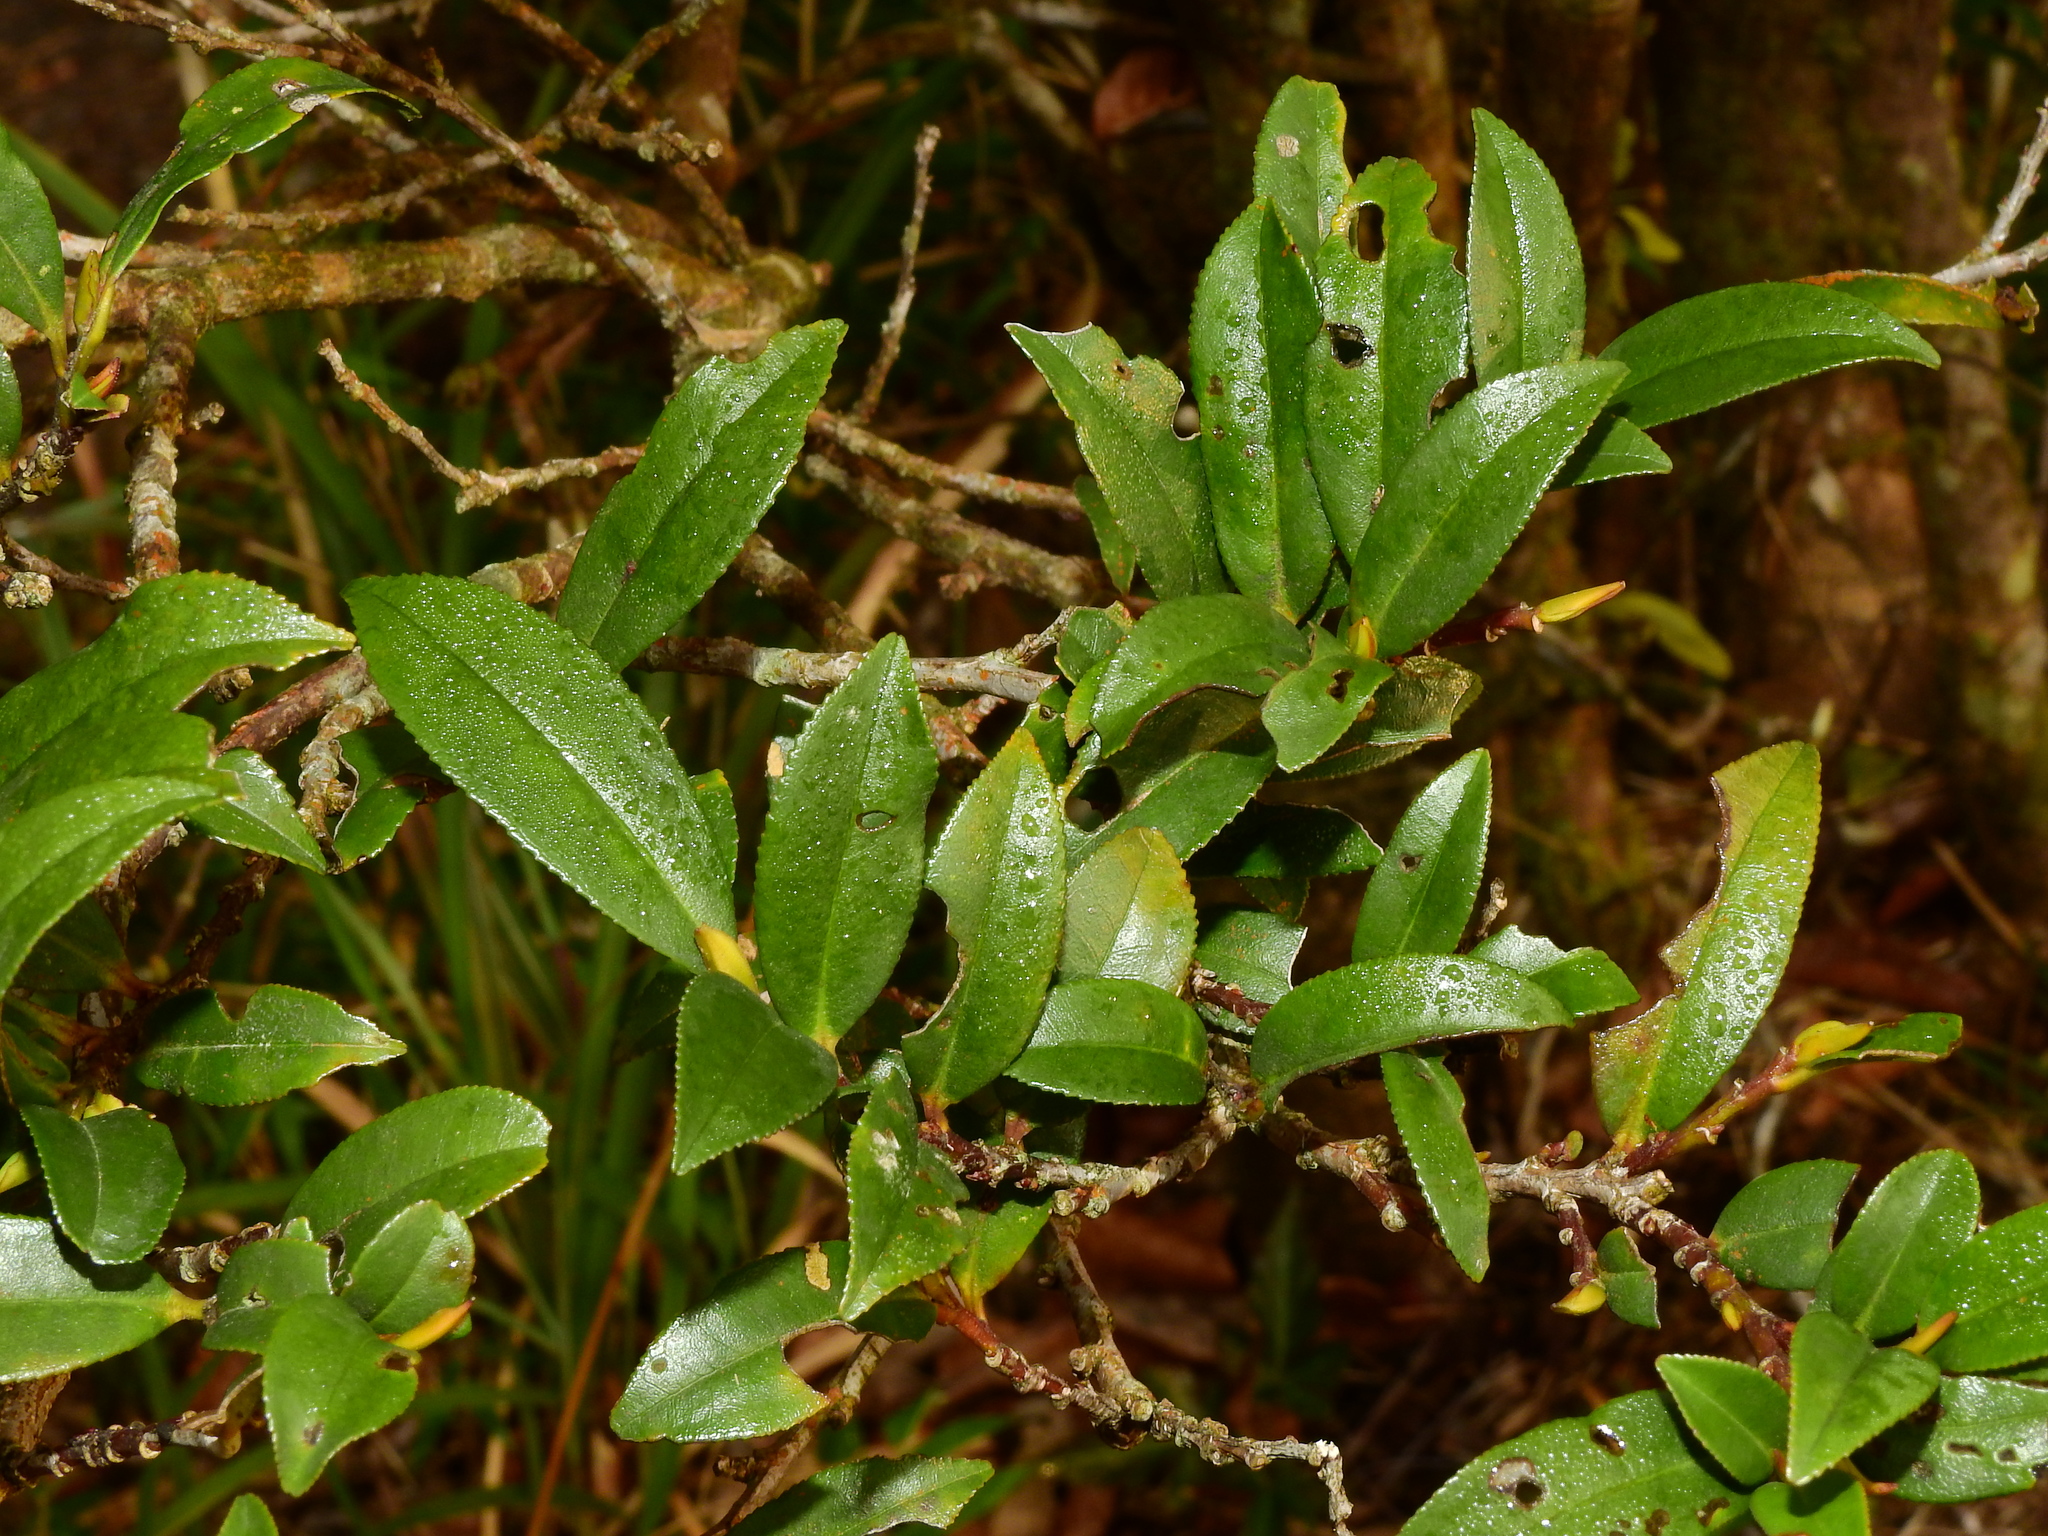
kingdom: Plantae
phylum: Tracheophyta
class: Magnoliopsida
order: Ericales
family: Pentaphylacaceae
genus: Eurya
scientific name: Eurya glaberrima
